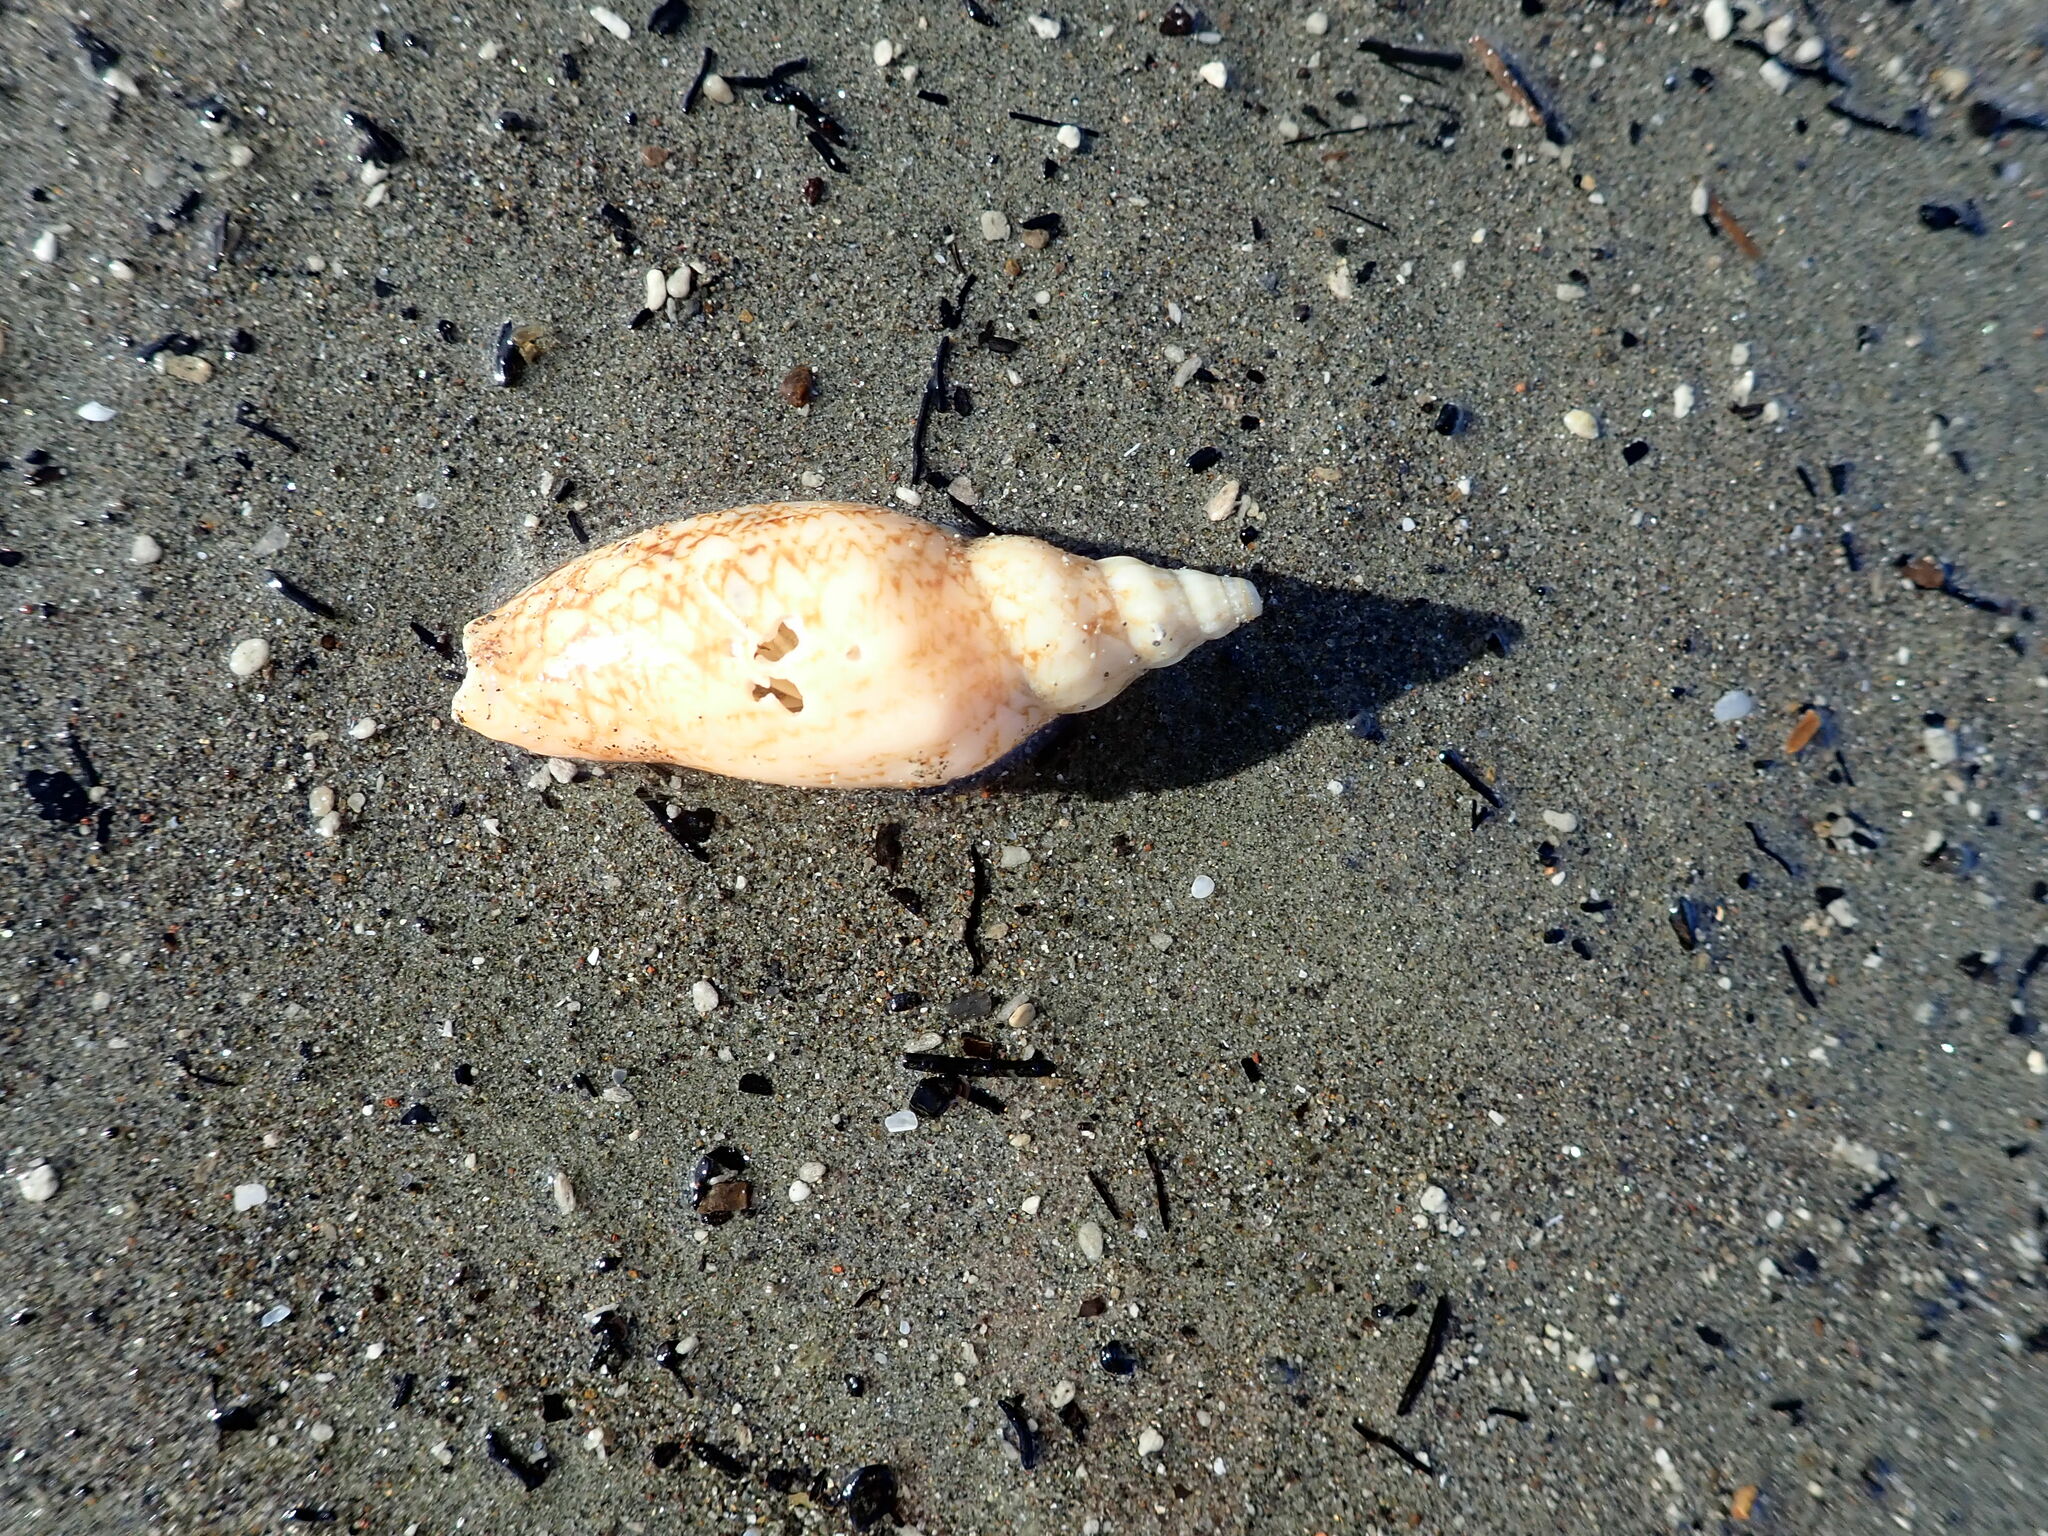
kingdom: Animalia
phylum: Mollusca
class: Gastropoda
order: Neogastropoda
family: Volutidae
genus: Alcithoe
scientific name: Alcithoe fusus
